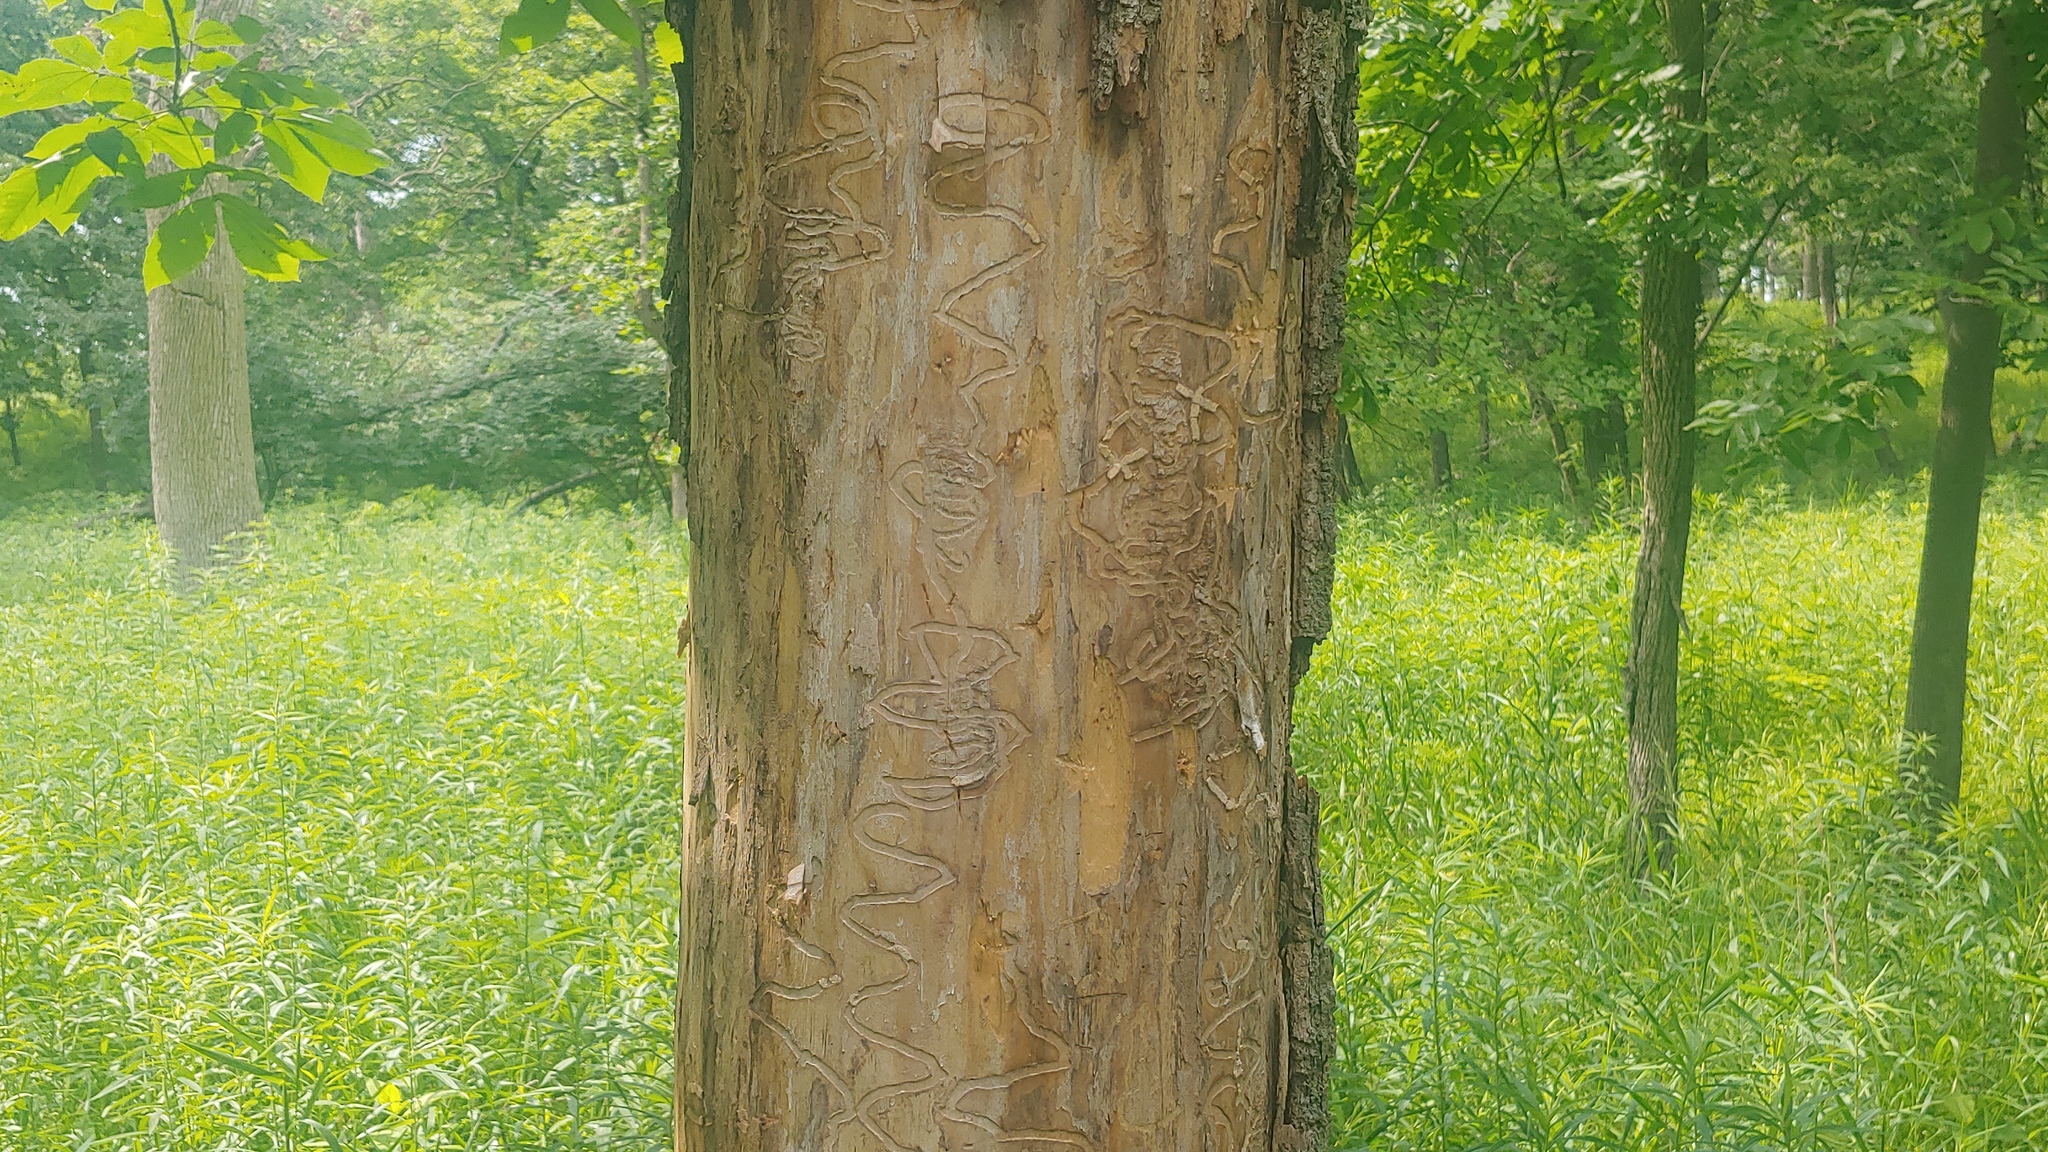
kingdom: Animalia
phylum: Arthropoda
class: Insecta
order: Coleoptera
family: Cerambycidae
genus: Megacyllene
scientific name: Megacyllene caryae
